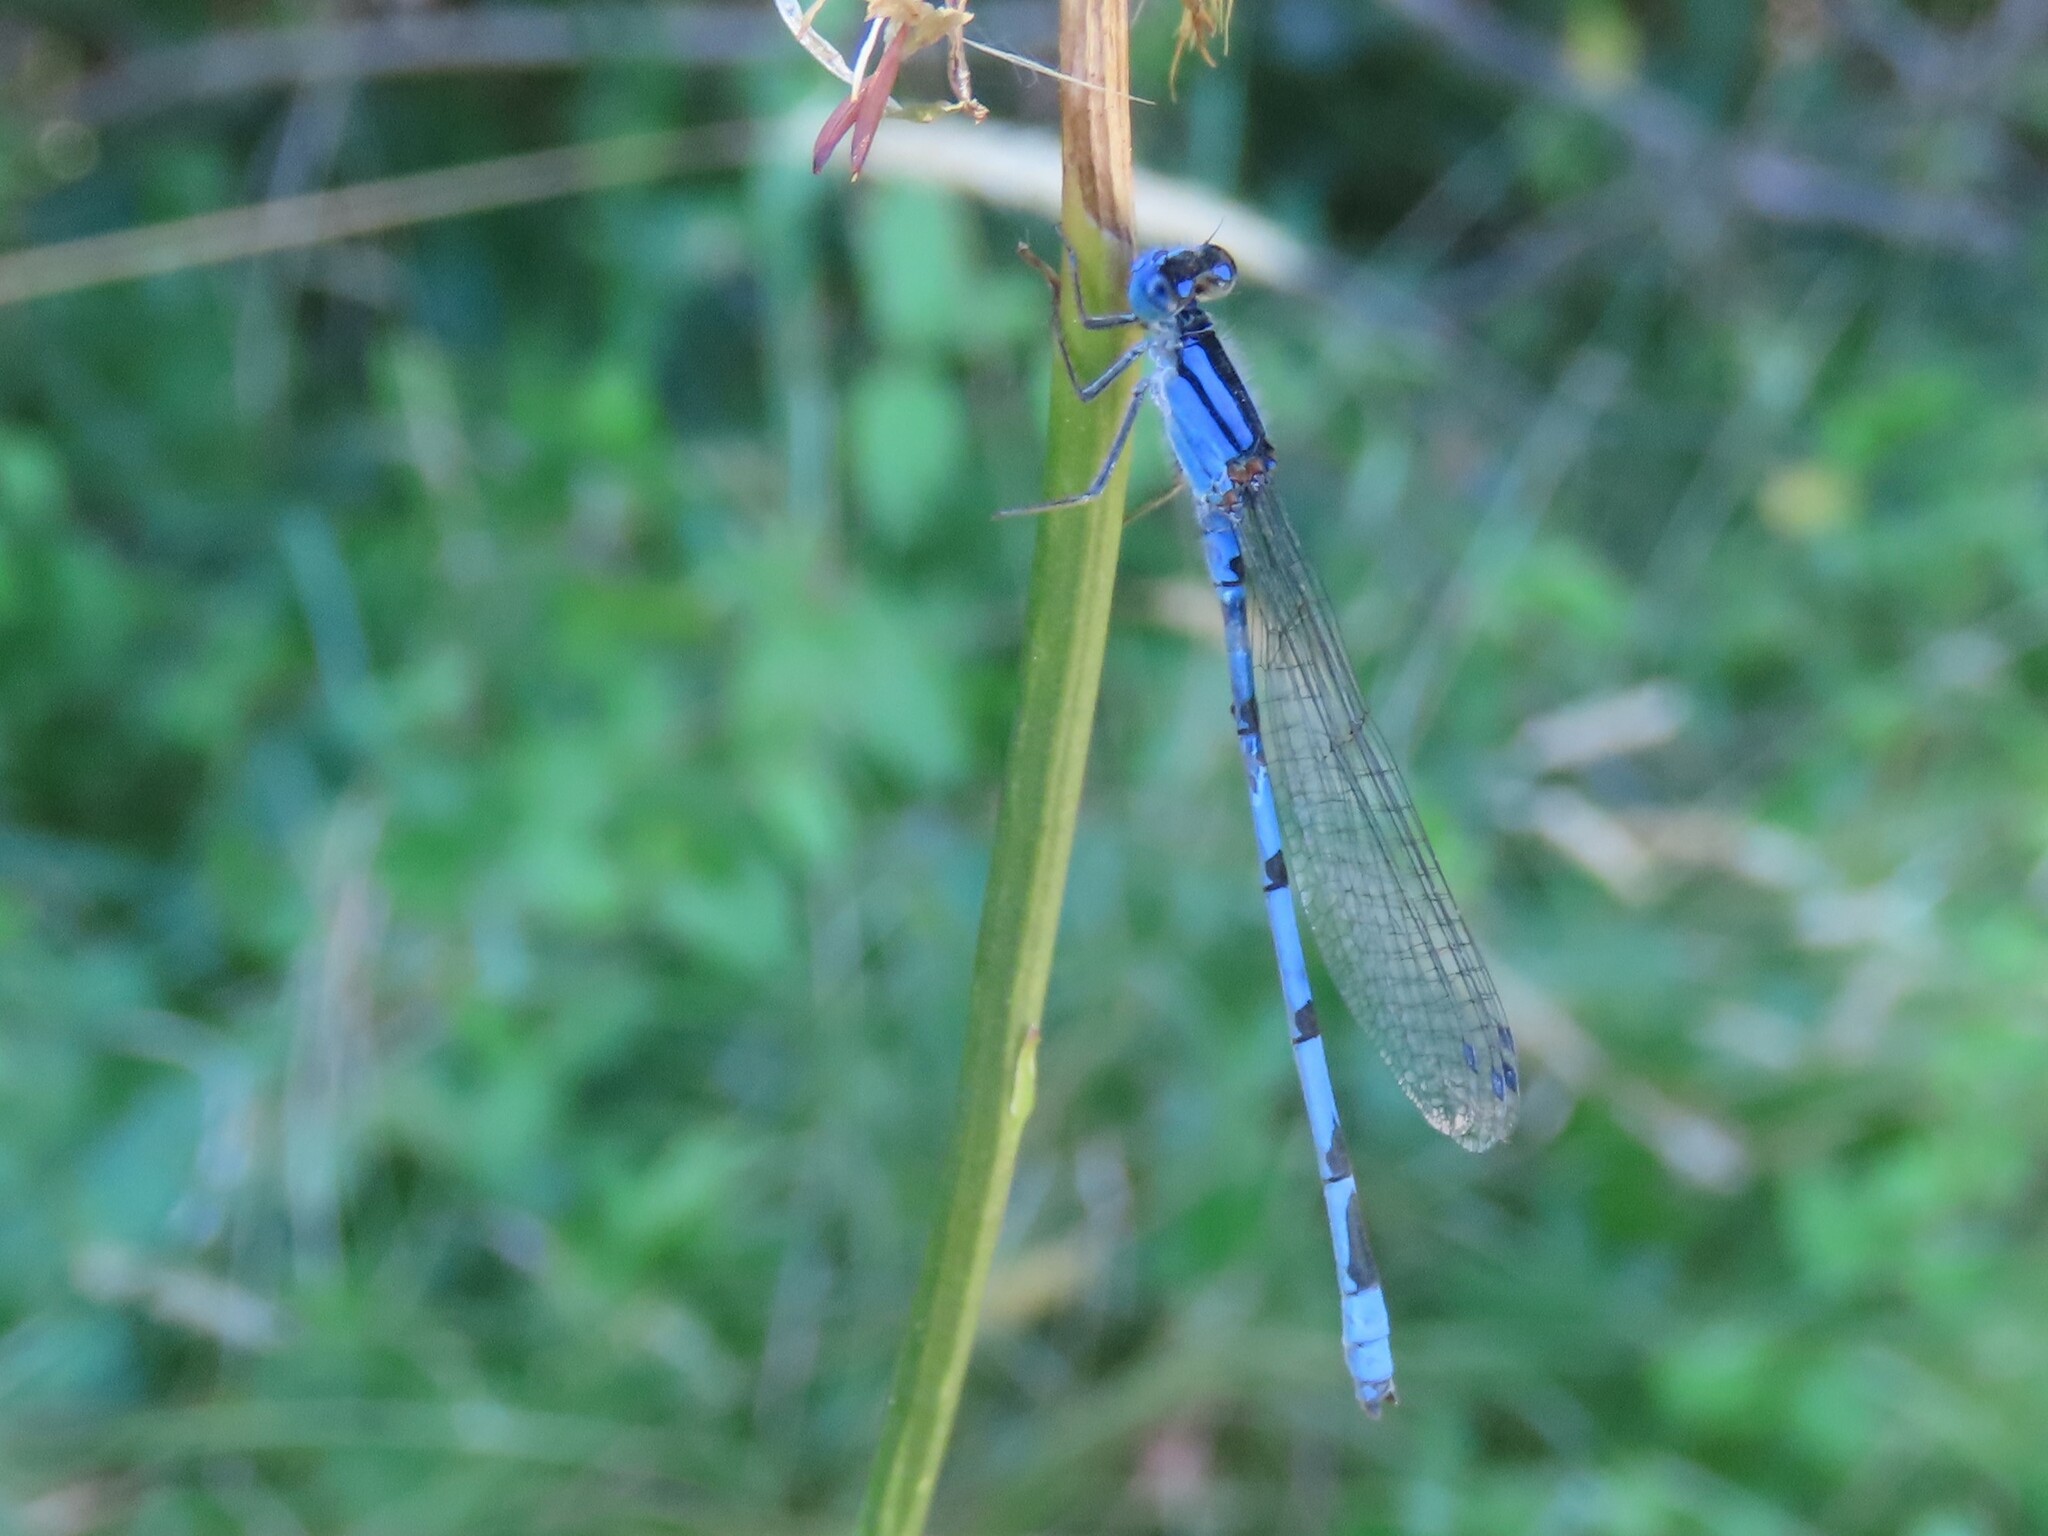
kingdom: Animalia
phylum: Arthropoda
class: Insecta
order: Odonata
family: Coenagrionidae
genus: Enallagma
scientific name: Enallagma civile
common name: Damselfly
